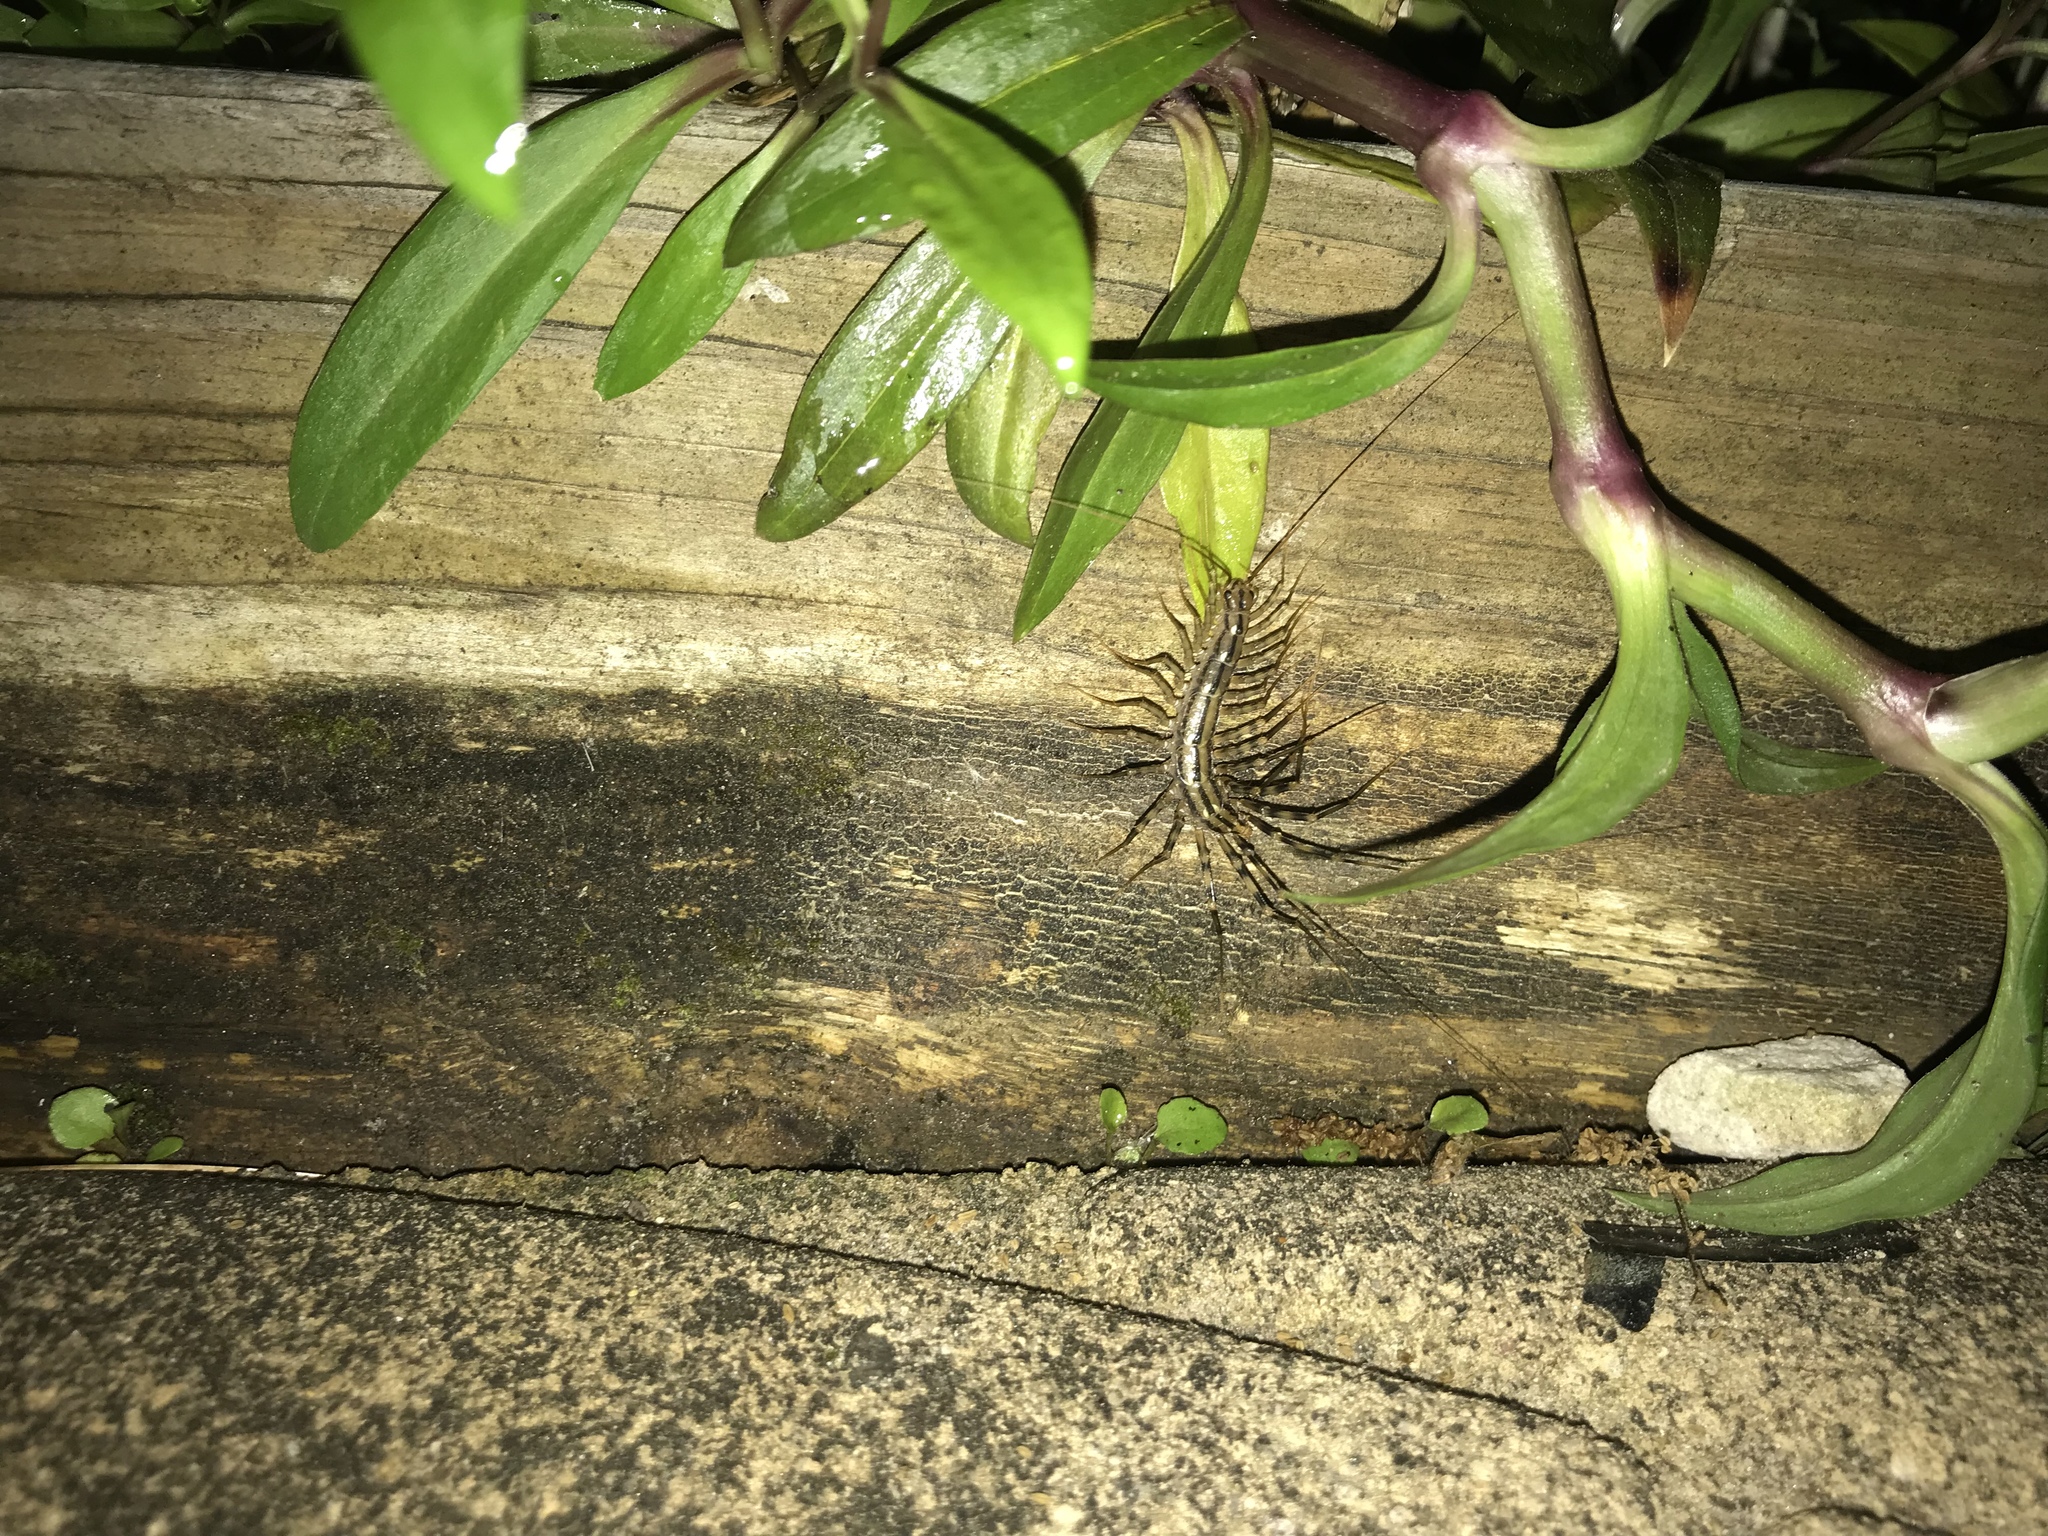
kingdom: Animalia
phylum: Arthropoda
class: Chilopoda
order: Scutigeromorpha
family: Scutigeridae
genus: Scutigera
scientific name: Scutigera coleoptrata
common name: House centipede
